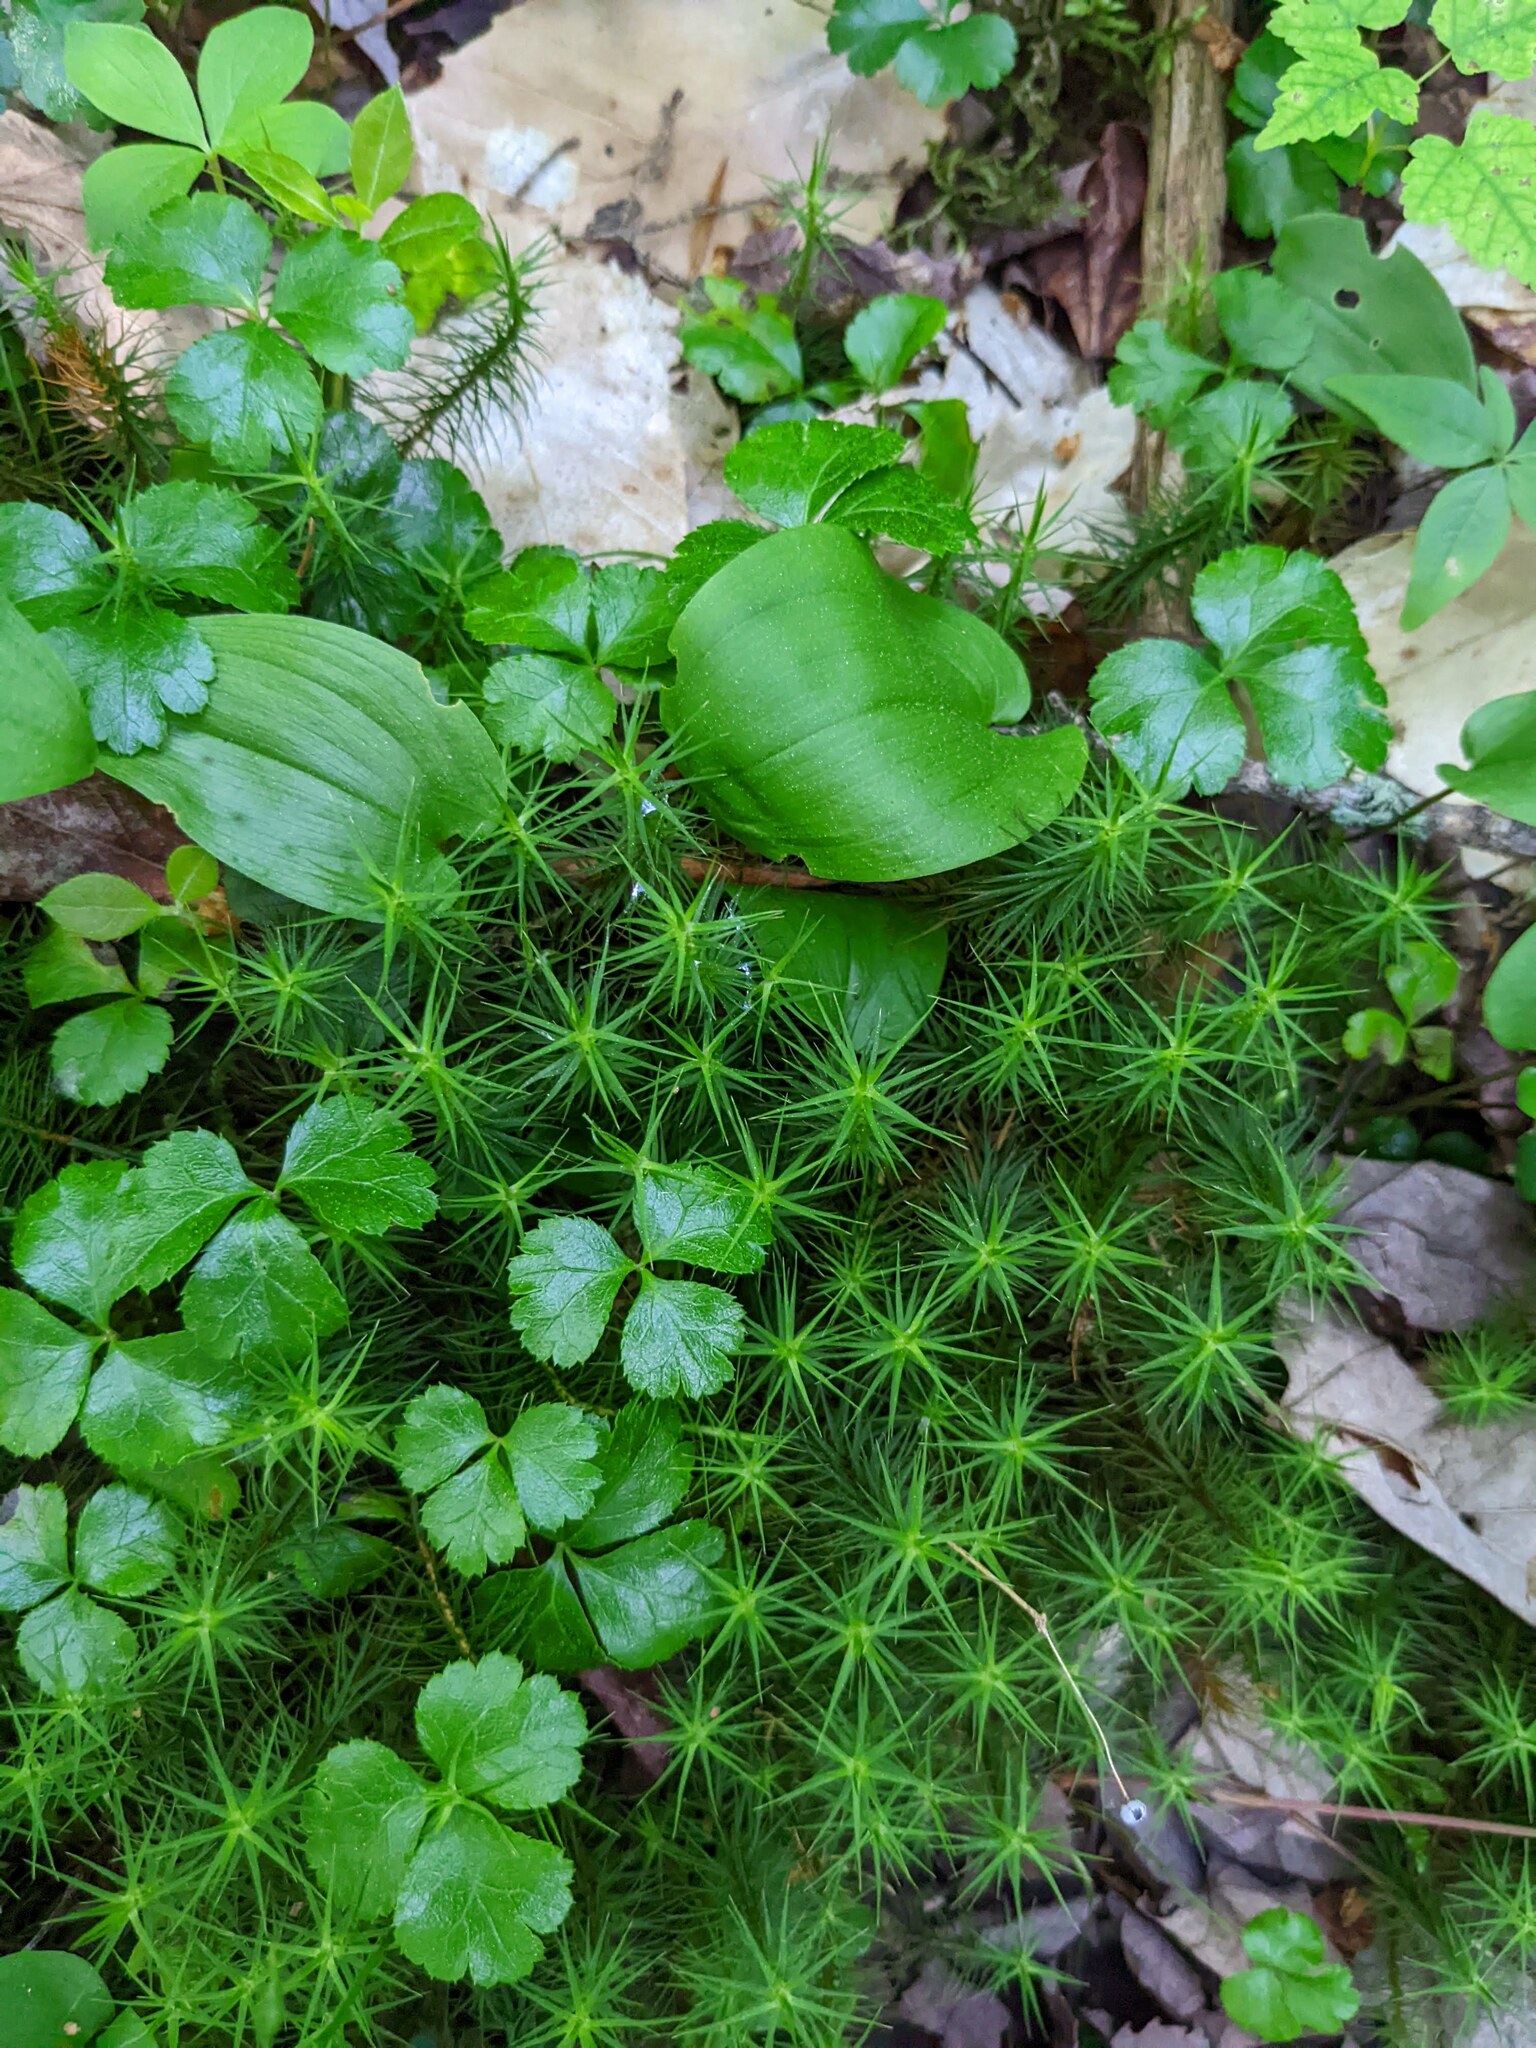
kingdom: Plantae
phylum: Tracheophyta
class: Magnoliopsida
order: Ranunculales
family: Ranunculaceae
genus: Coptis
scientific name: Coptis trifolia
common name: Canker-root
